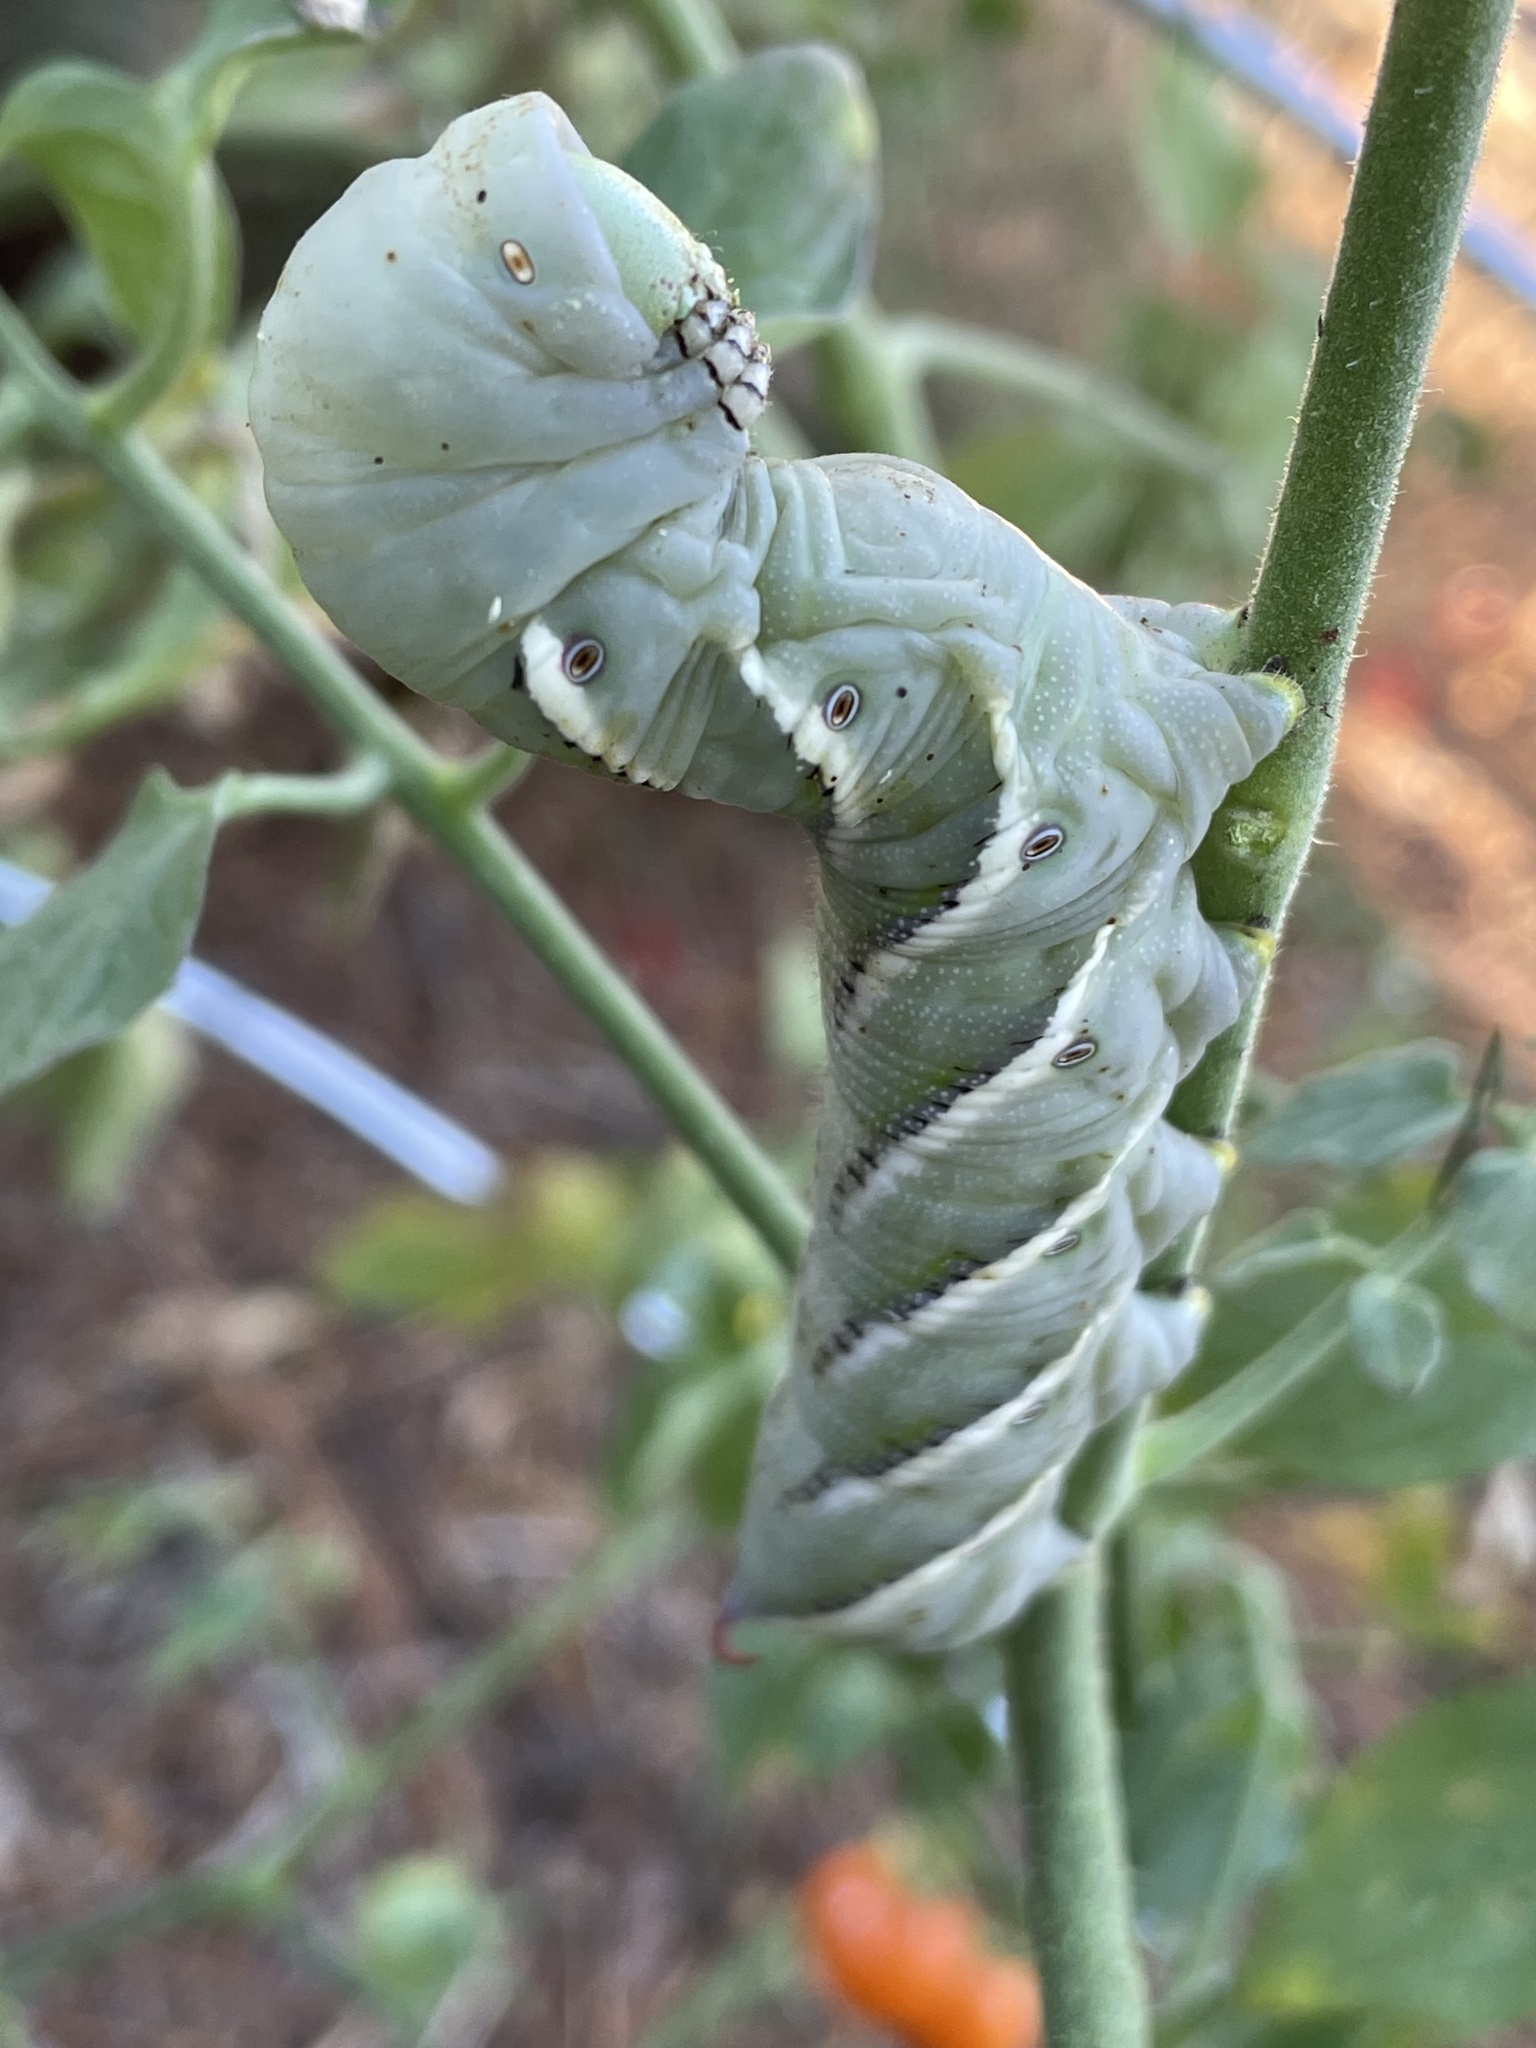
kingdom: Animalia
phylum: Arthropoda
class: Insecta
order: Lepidoptera
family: Sphingidae
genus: Manduca
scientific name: Manduca sexta
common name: Carolina sphinx
